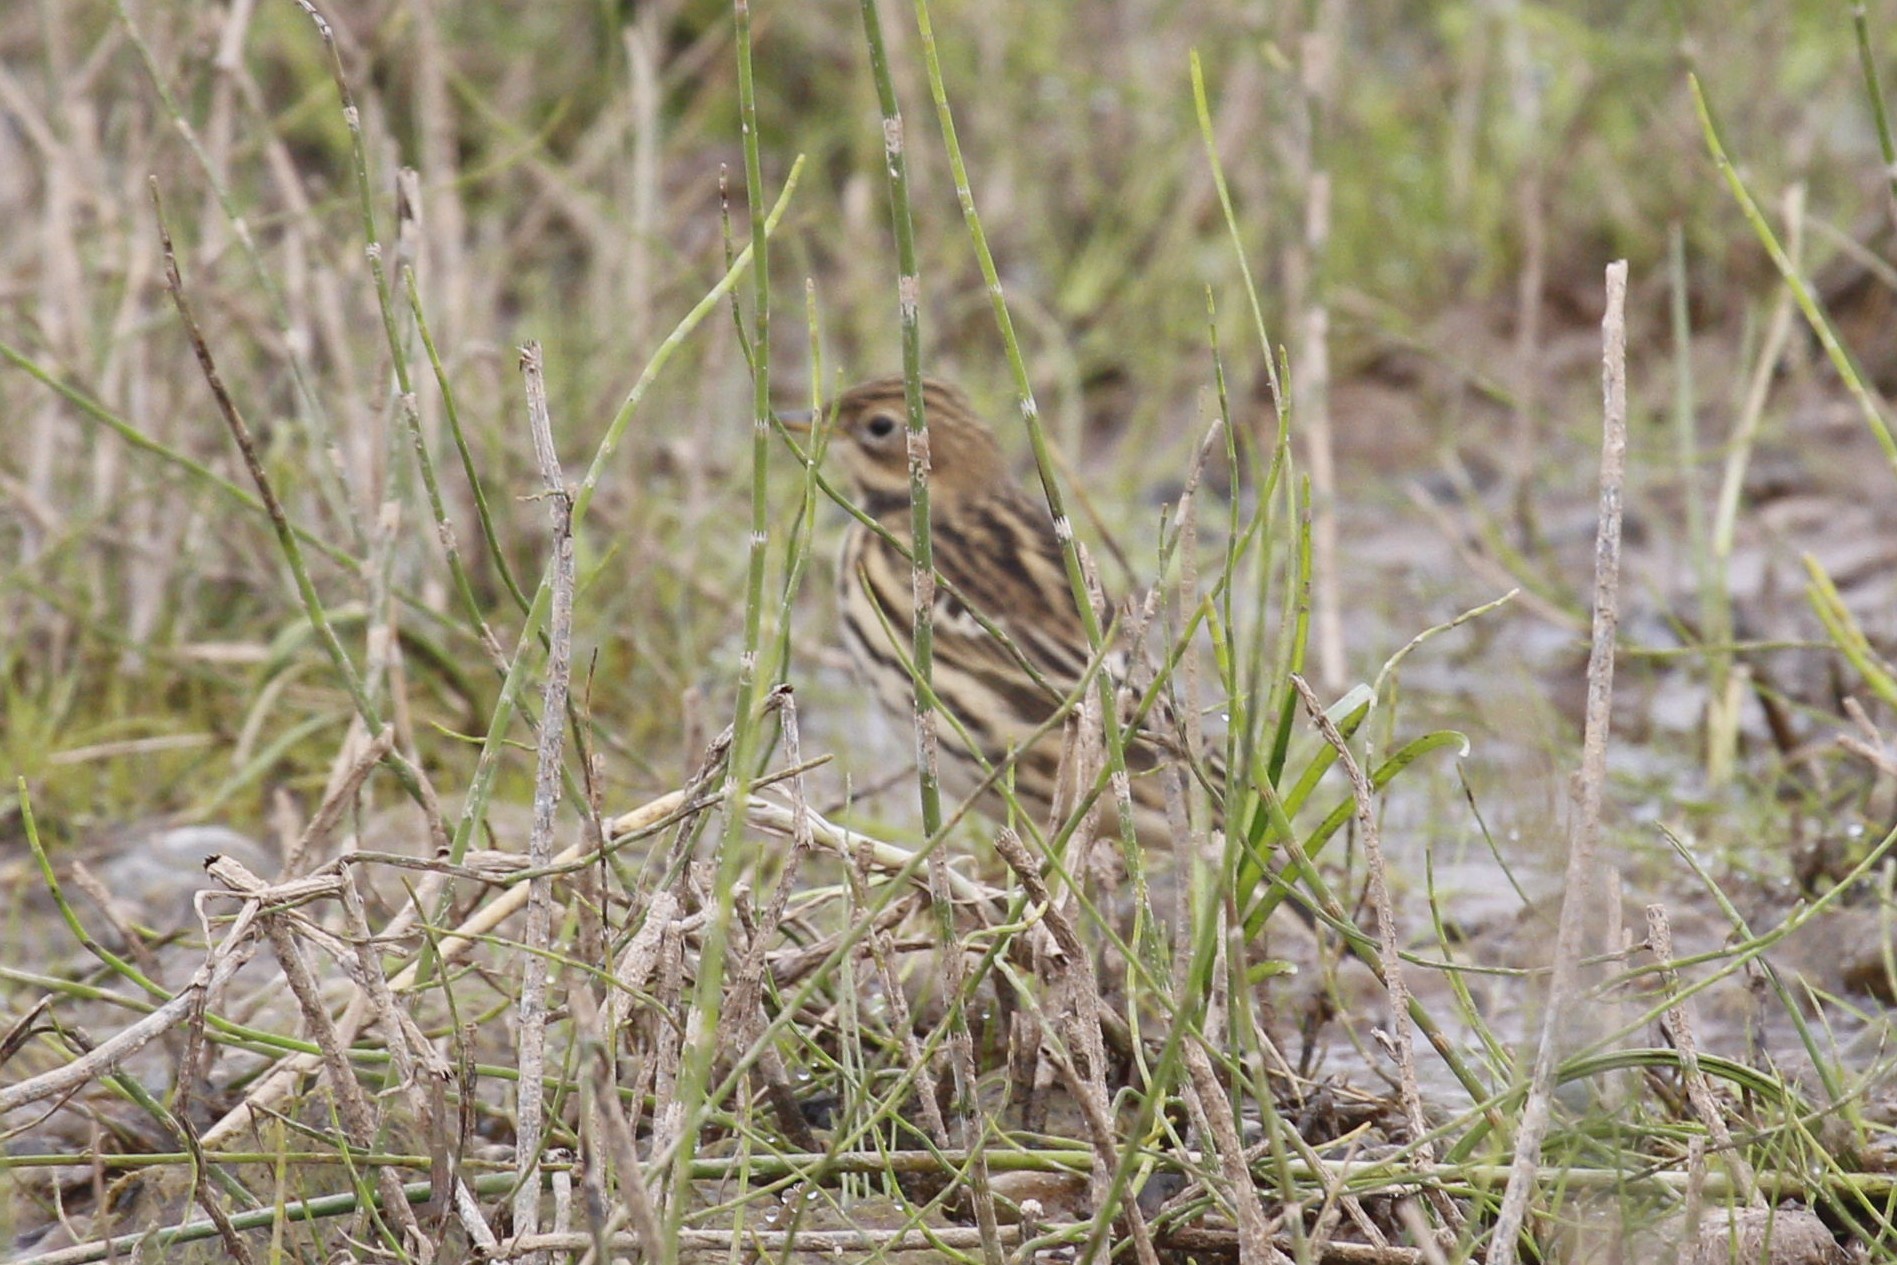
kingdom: Animalia
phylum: Chordata
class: Aves
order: Passeriformes
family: Motacillidae
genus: Anthus
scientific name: Anthus cervinus
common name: Red-throated pipit
